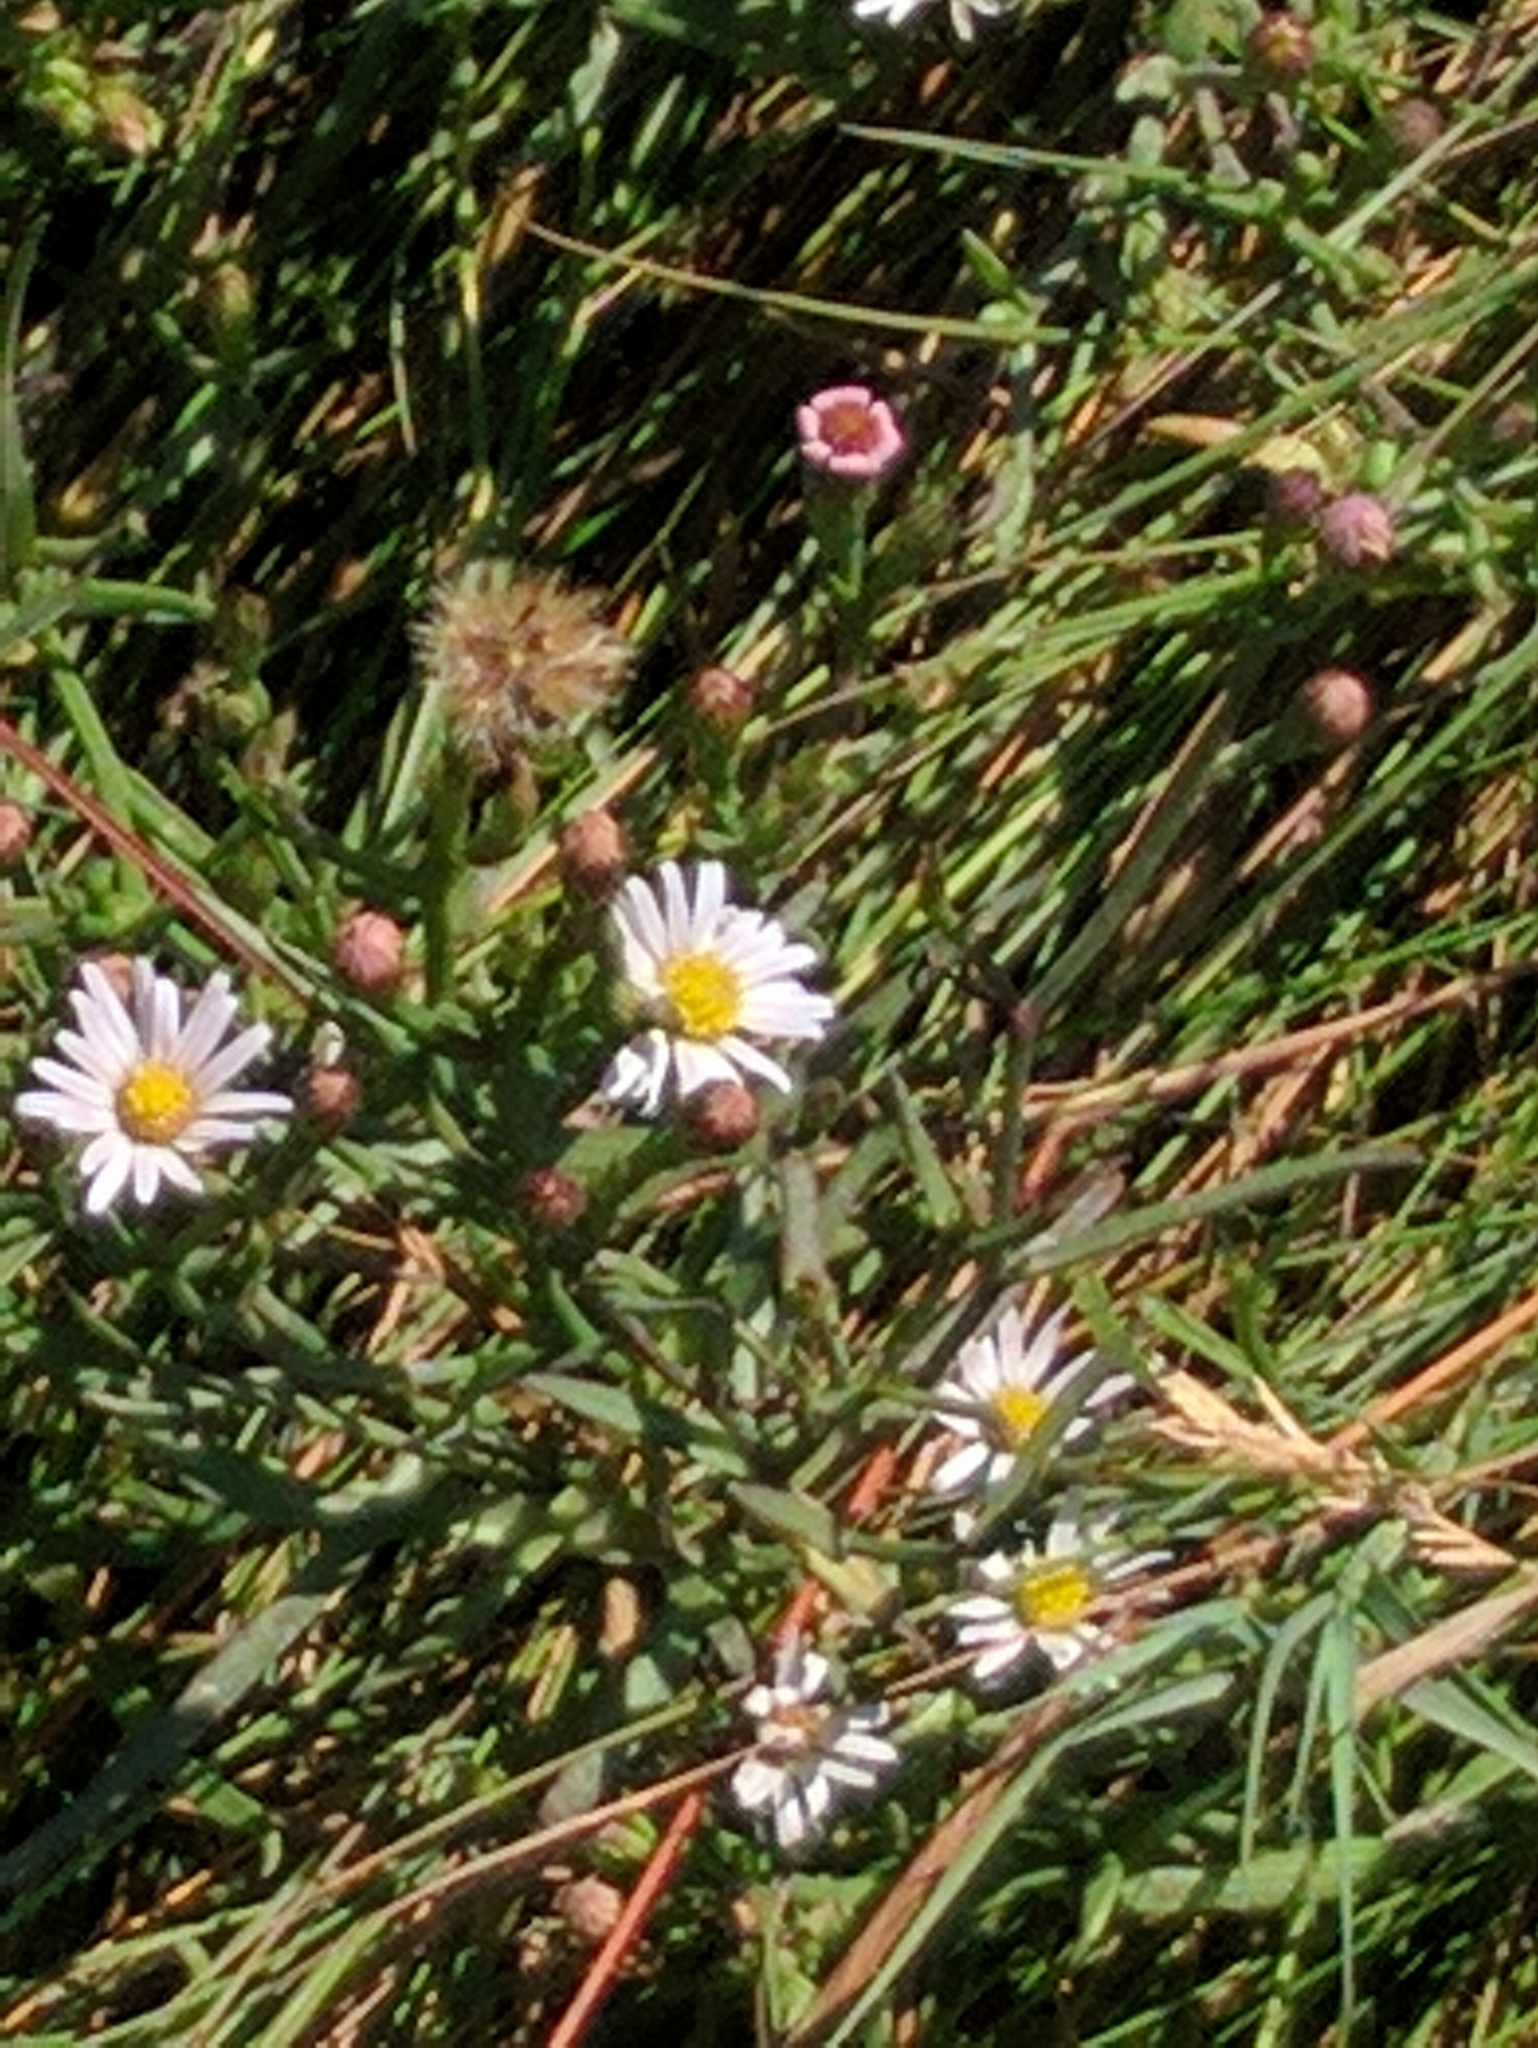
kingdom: Plantae
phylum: Tracheophyta
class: Magnoliopsida
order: Asterales
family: Asteraceae
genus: Symphyotrichum
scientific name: Symphyotrichum tenuifolium
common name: Perennial salt-marsh aster
